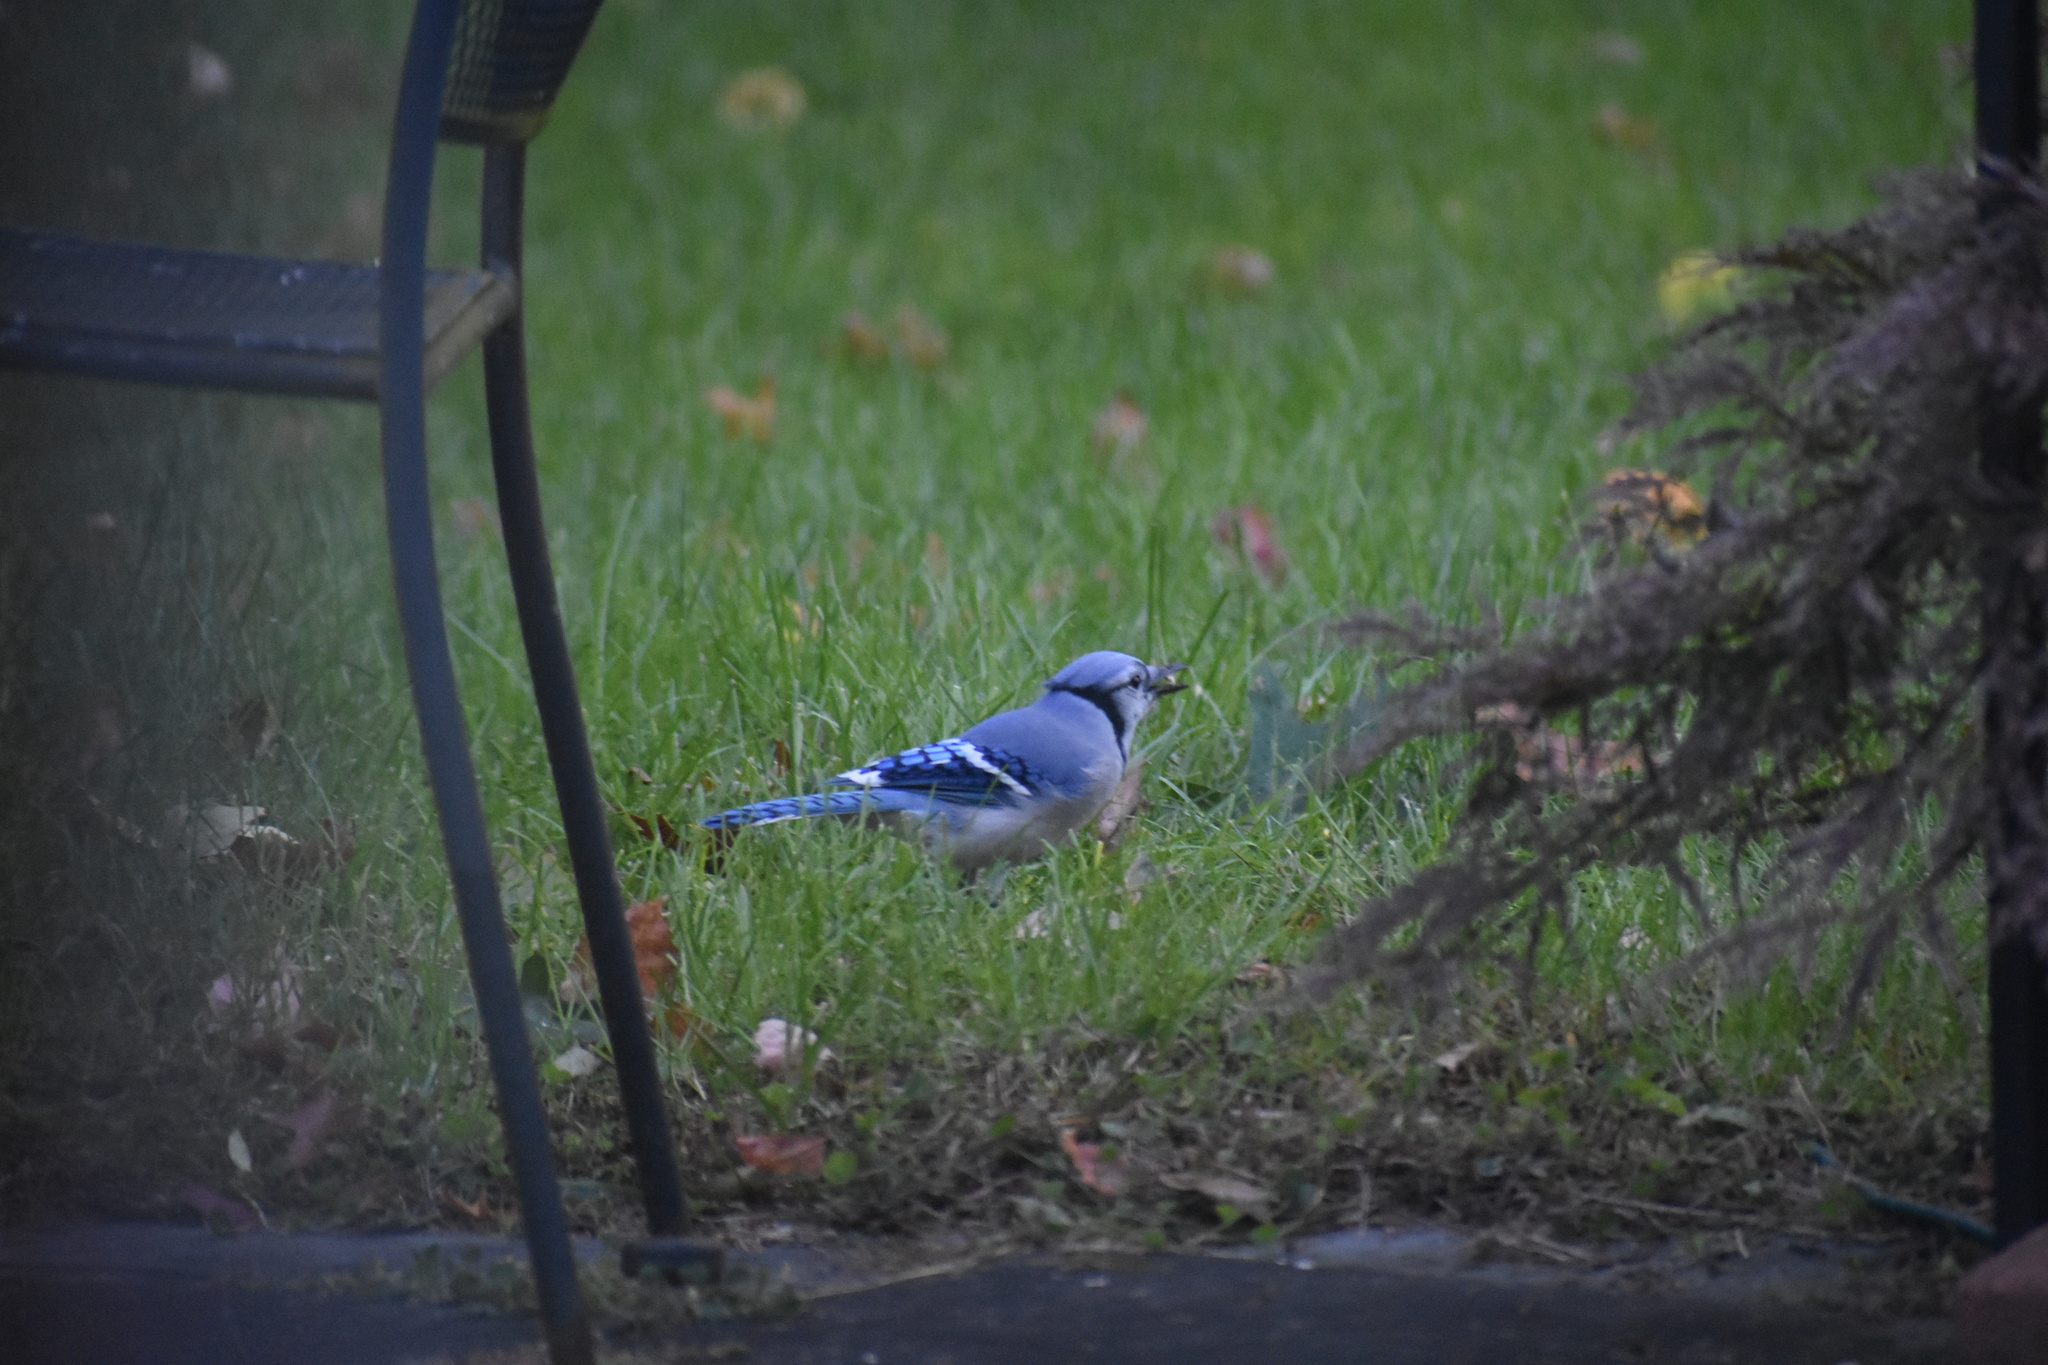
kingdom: Animalia
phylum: Chordata
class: Aves
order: Passeriformes
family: Corvidae
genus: Cyanocitta
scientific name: Cyanocitta cristata
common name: Blue jay
